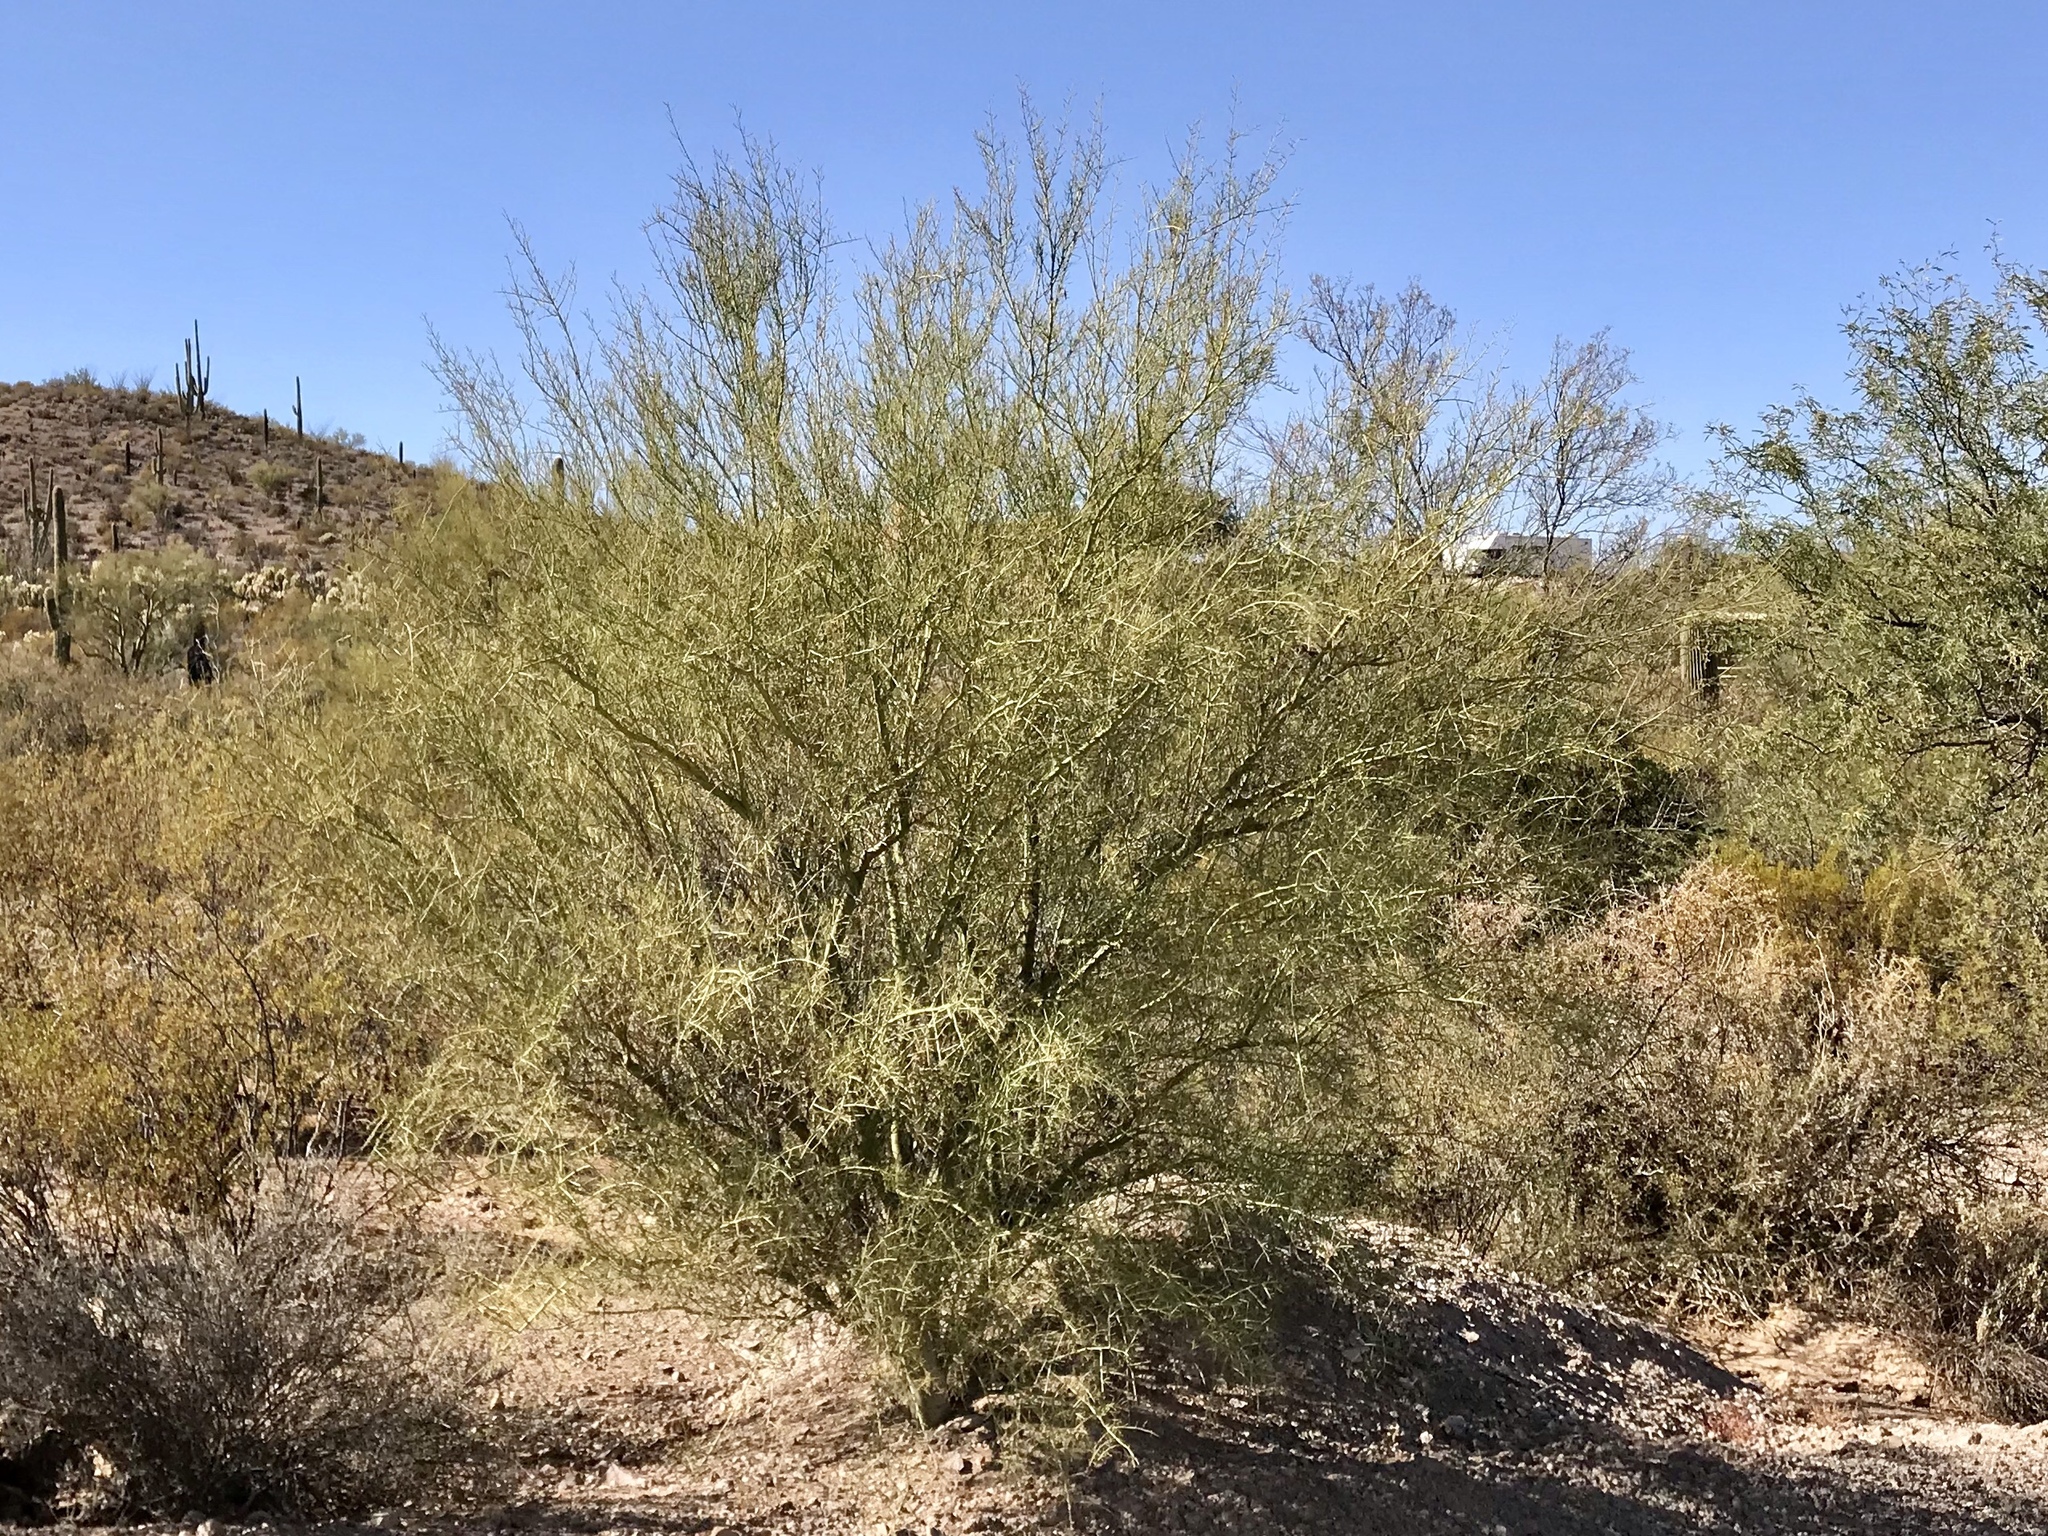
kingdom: Plantae
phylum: Tracheophyta
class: Magnoliopsida
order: Fabales
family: Fabaceae
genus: Parkinsonia
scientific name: Parkinsonia microphylla
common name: Yellow paloverde
